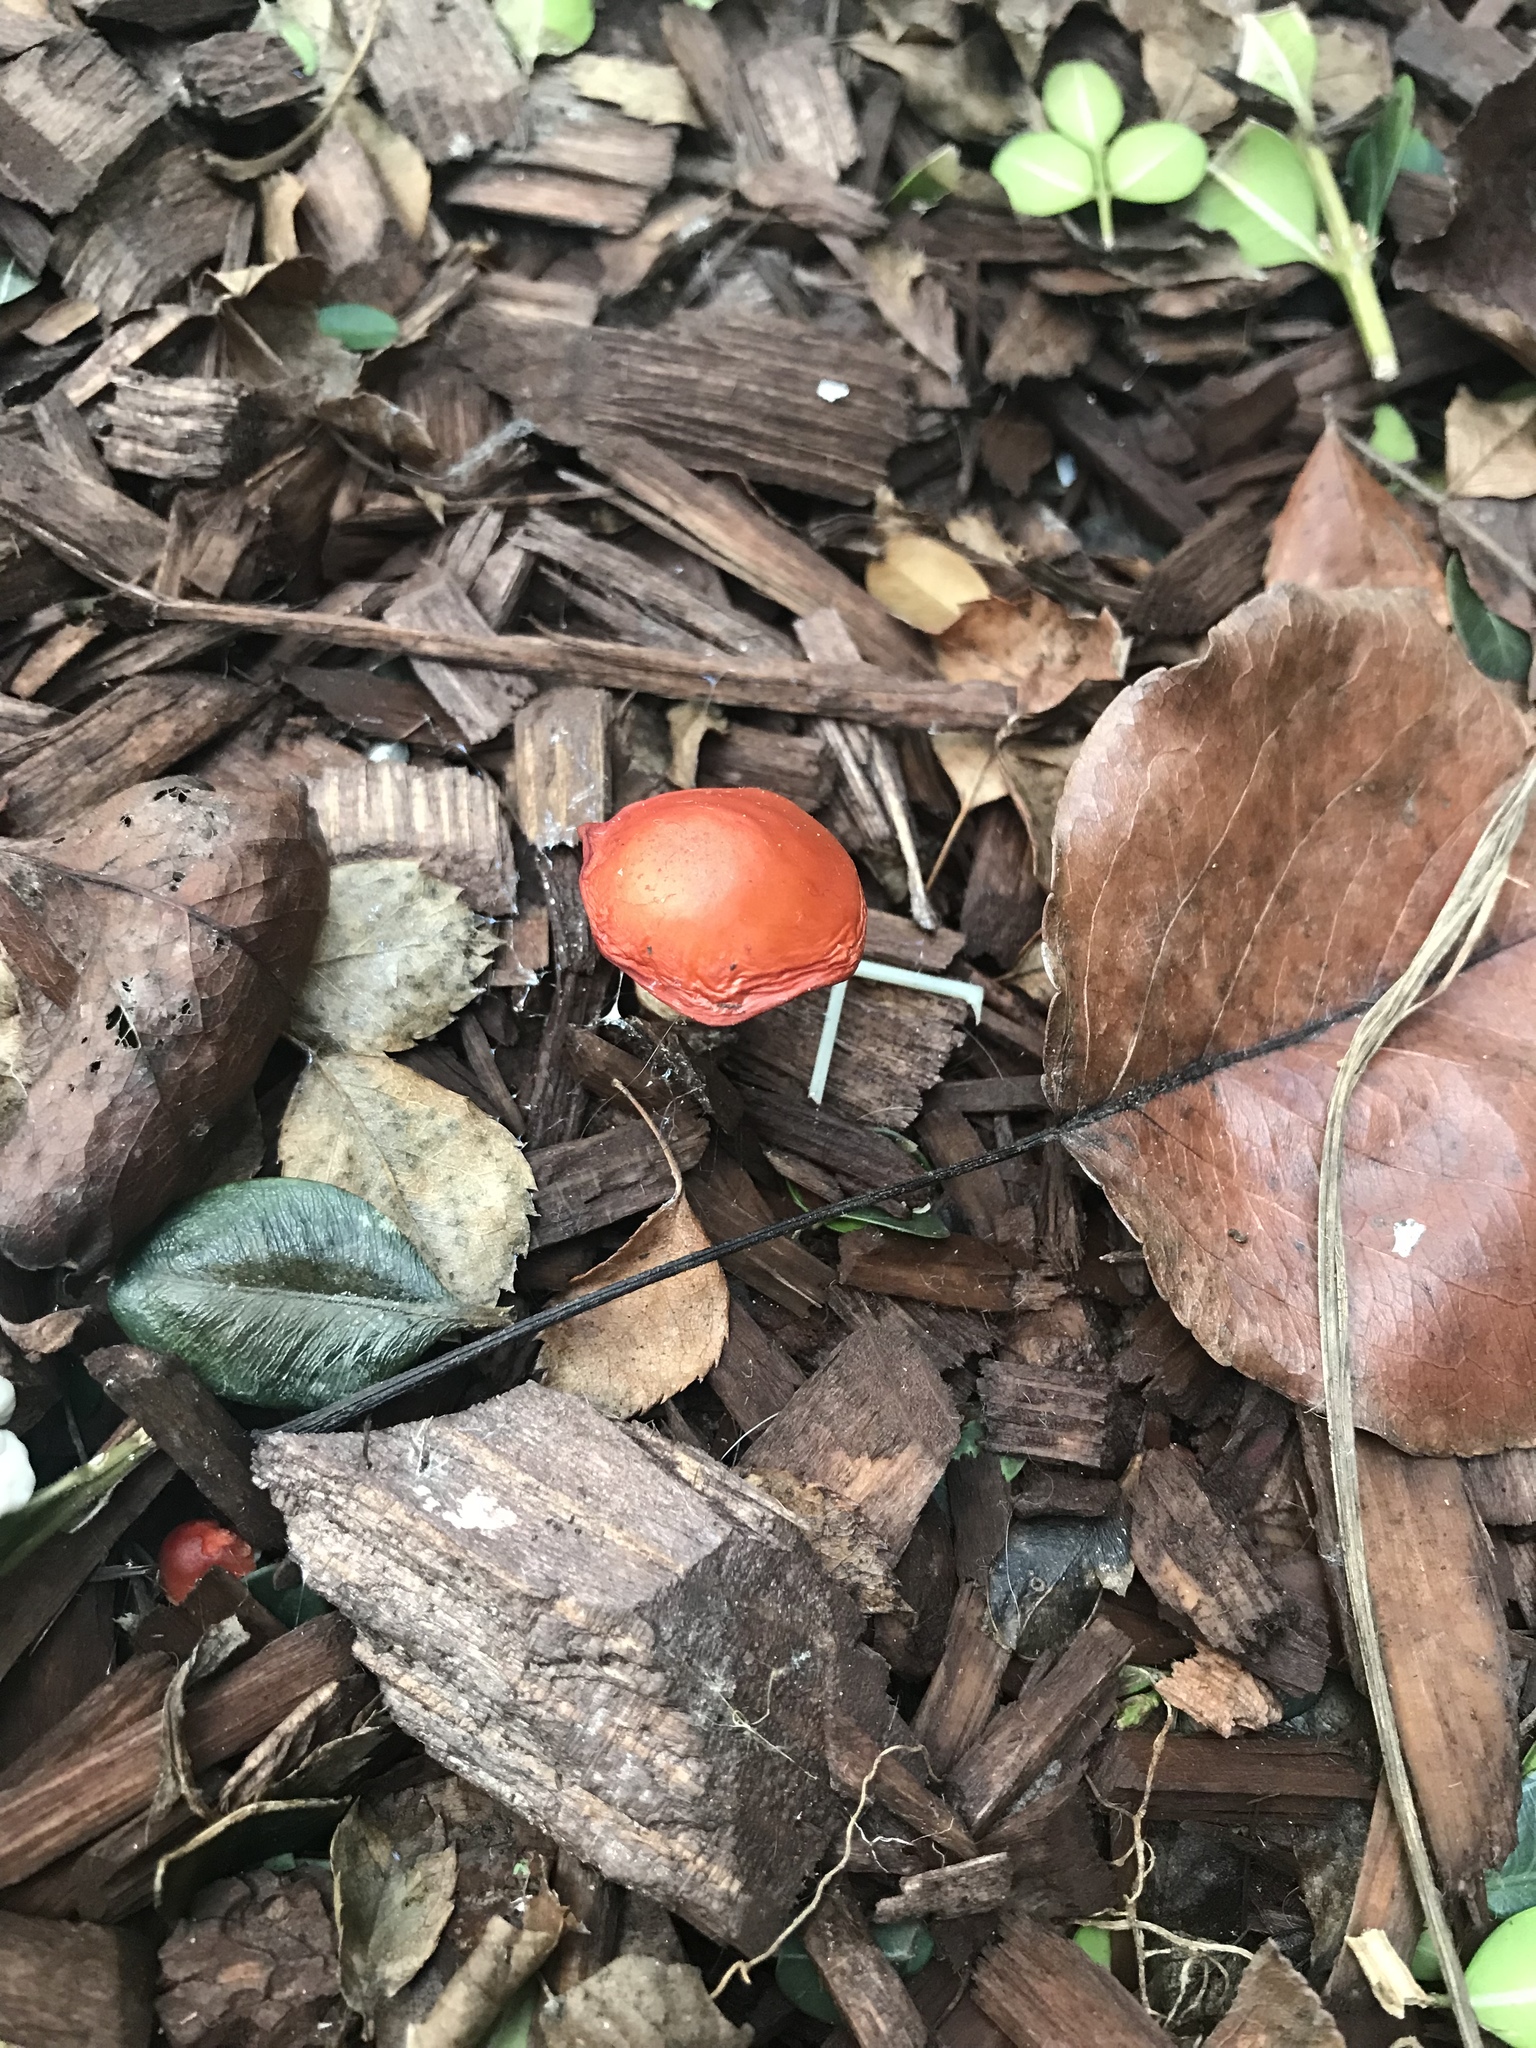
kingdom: Fungi
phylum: Basidiomycota
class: Agaricomycetes
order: Agaricales
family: Strophariaceae
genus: Leratiomyces
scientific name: Leratiomyces ceres
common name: Redlead roundhead
